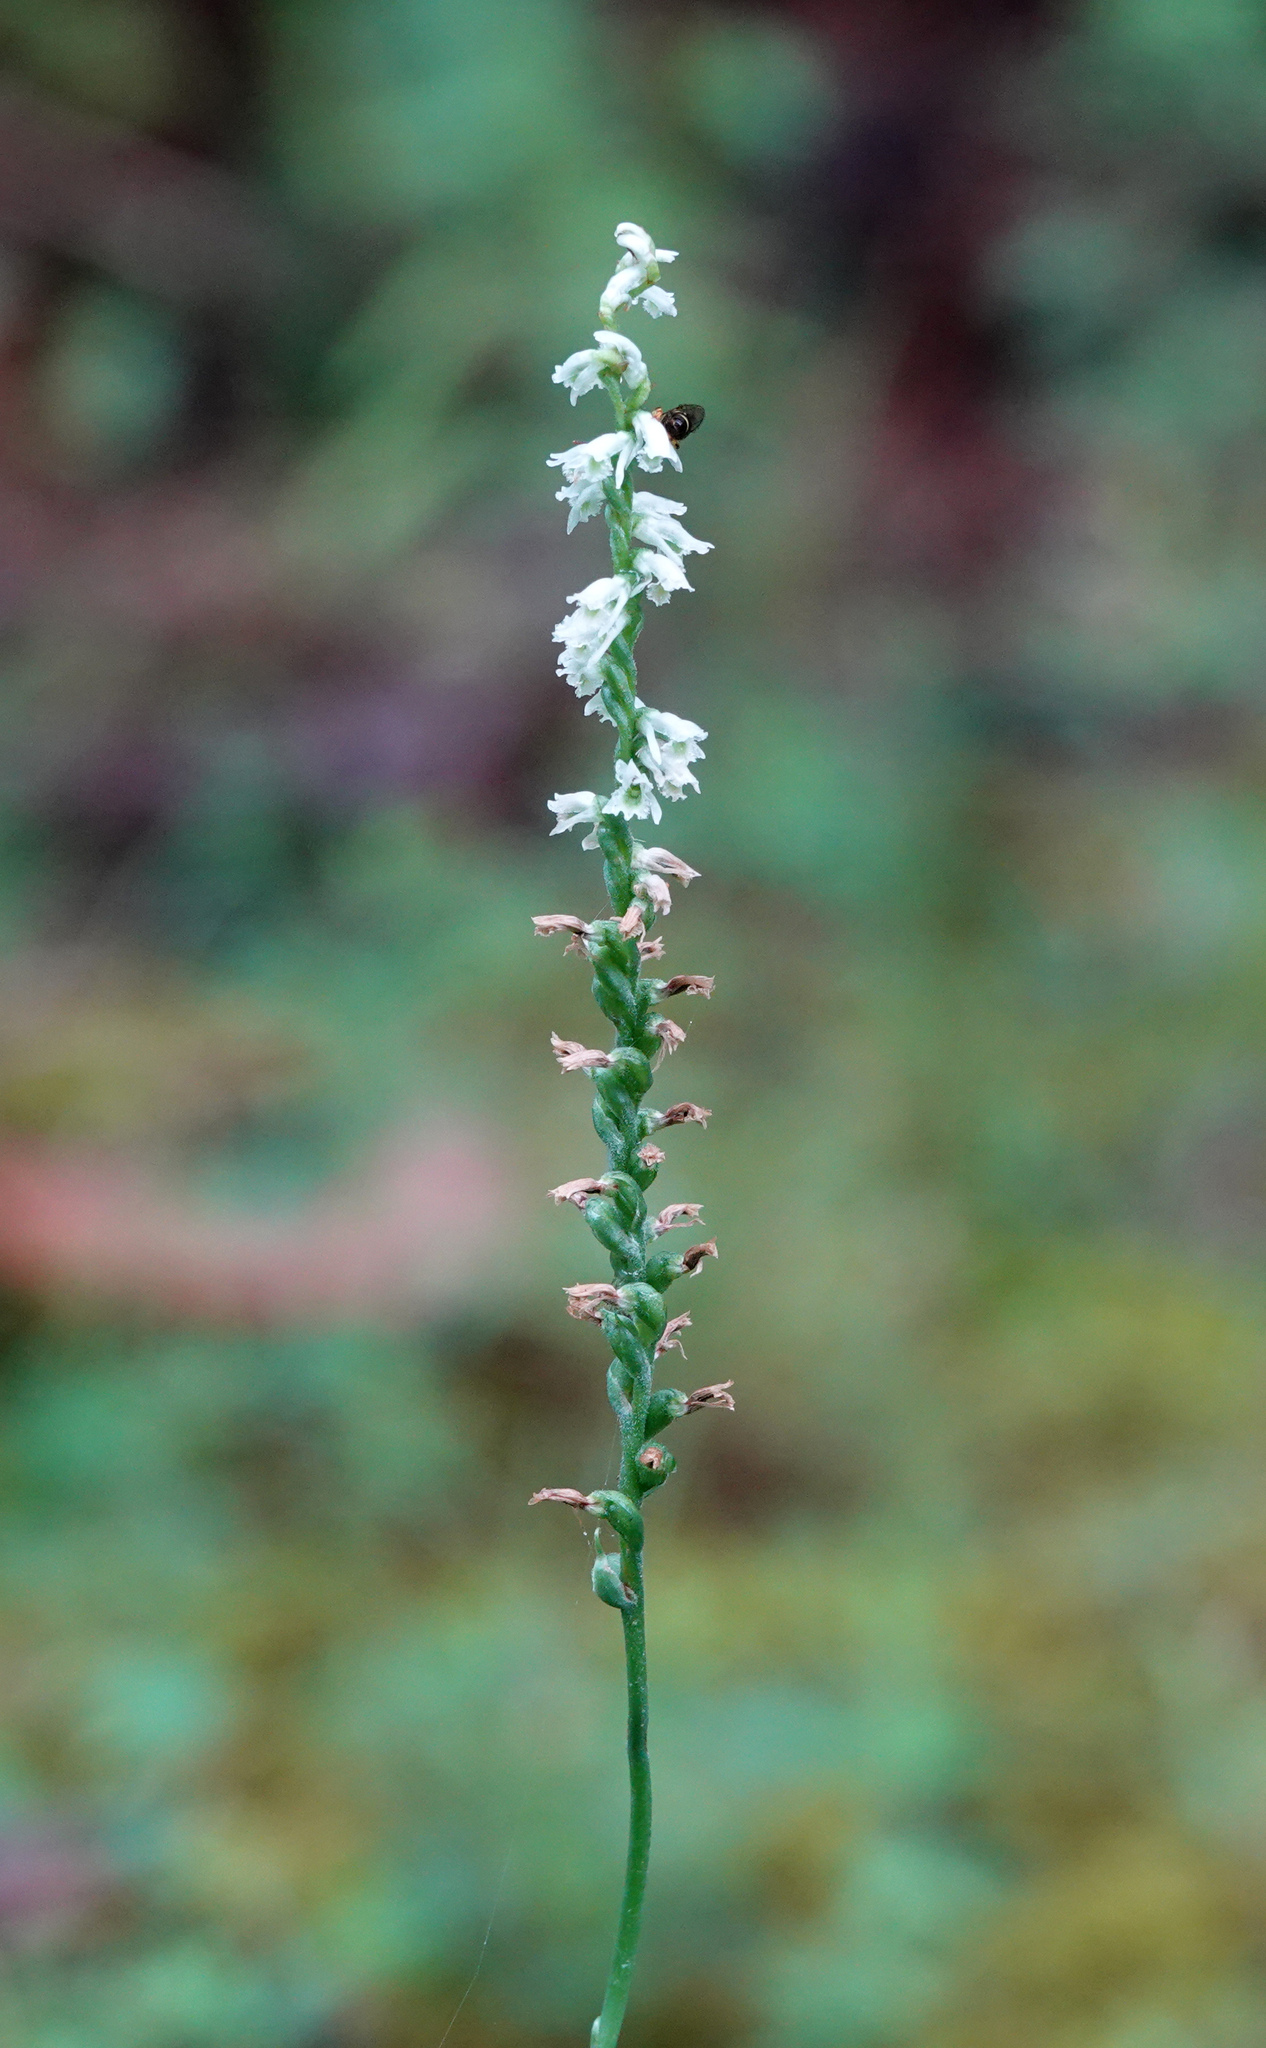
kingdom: Plantae
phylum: Tracheophyta
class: Liliopsida
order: Asparagales
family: Orchidaceae
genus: Spiranthes
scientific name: Spiranthes lacera
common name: Northern slender ladies'-tresses
